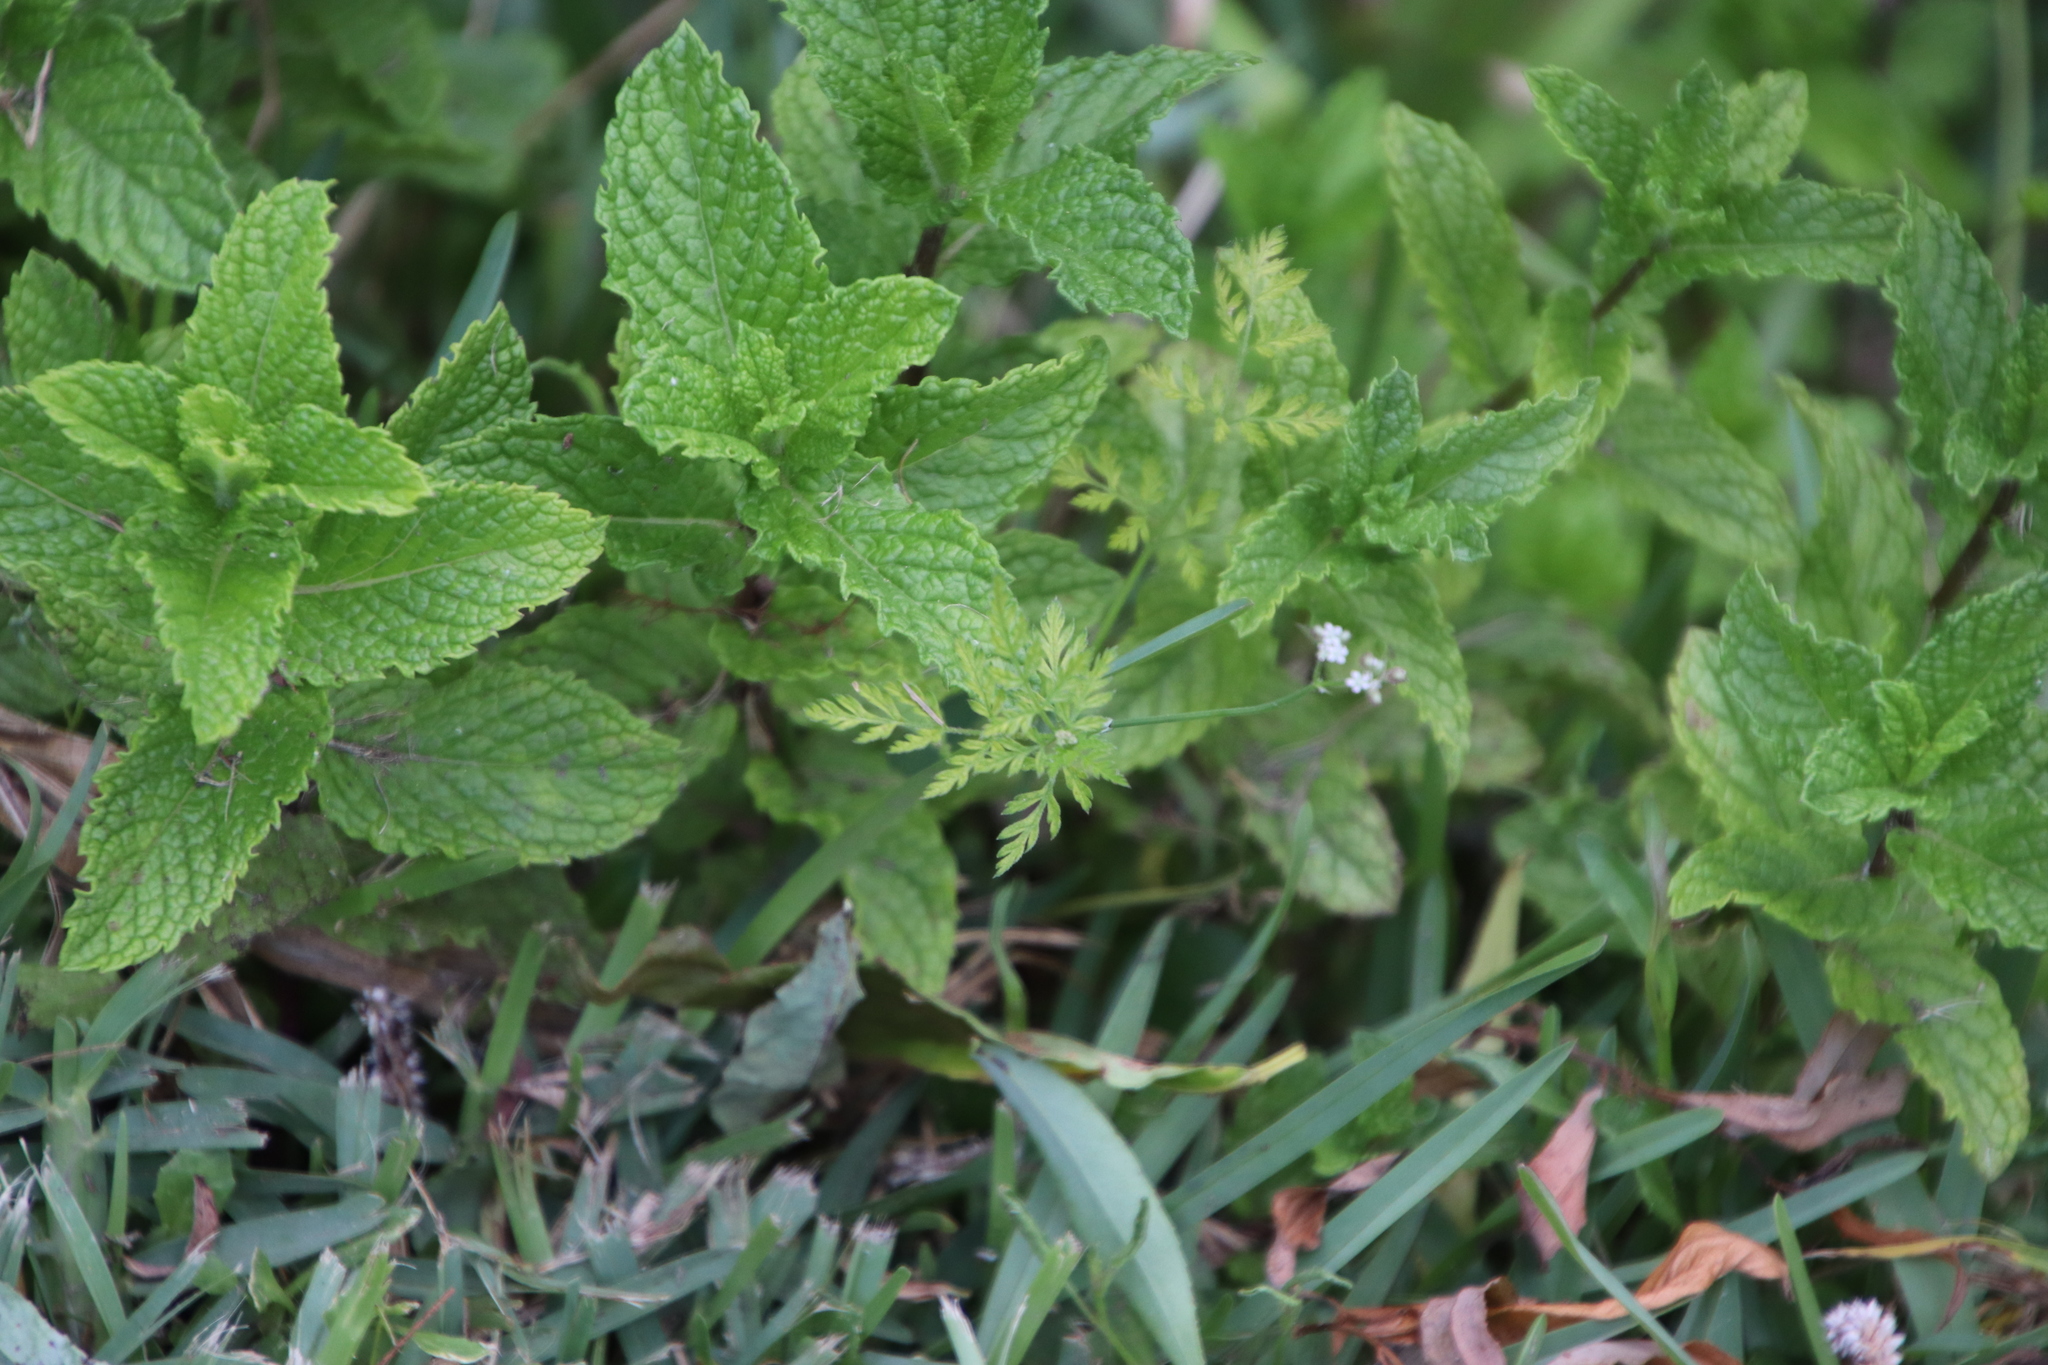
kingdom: Plantae
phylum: Tracheophyta
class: Magnoliopsida
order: Apiales
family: Apiaceae
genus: Torilis
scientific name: Torilis africana
